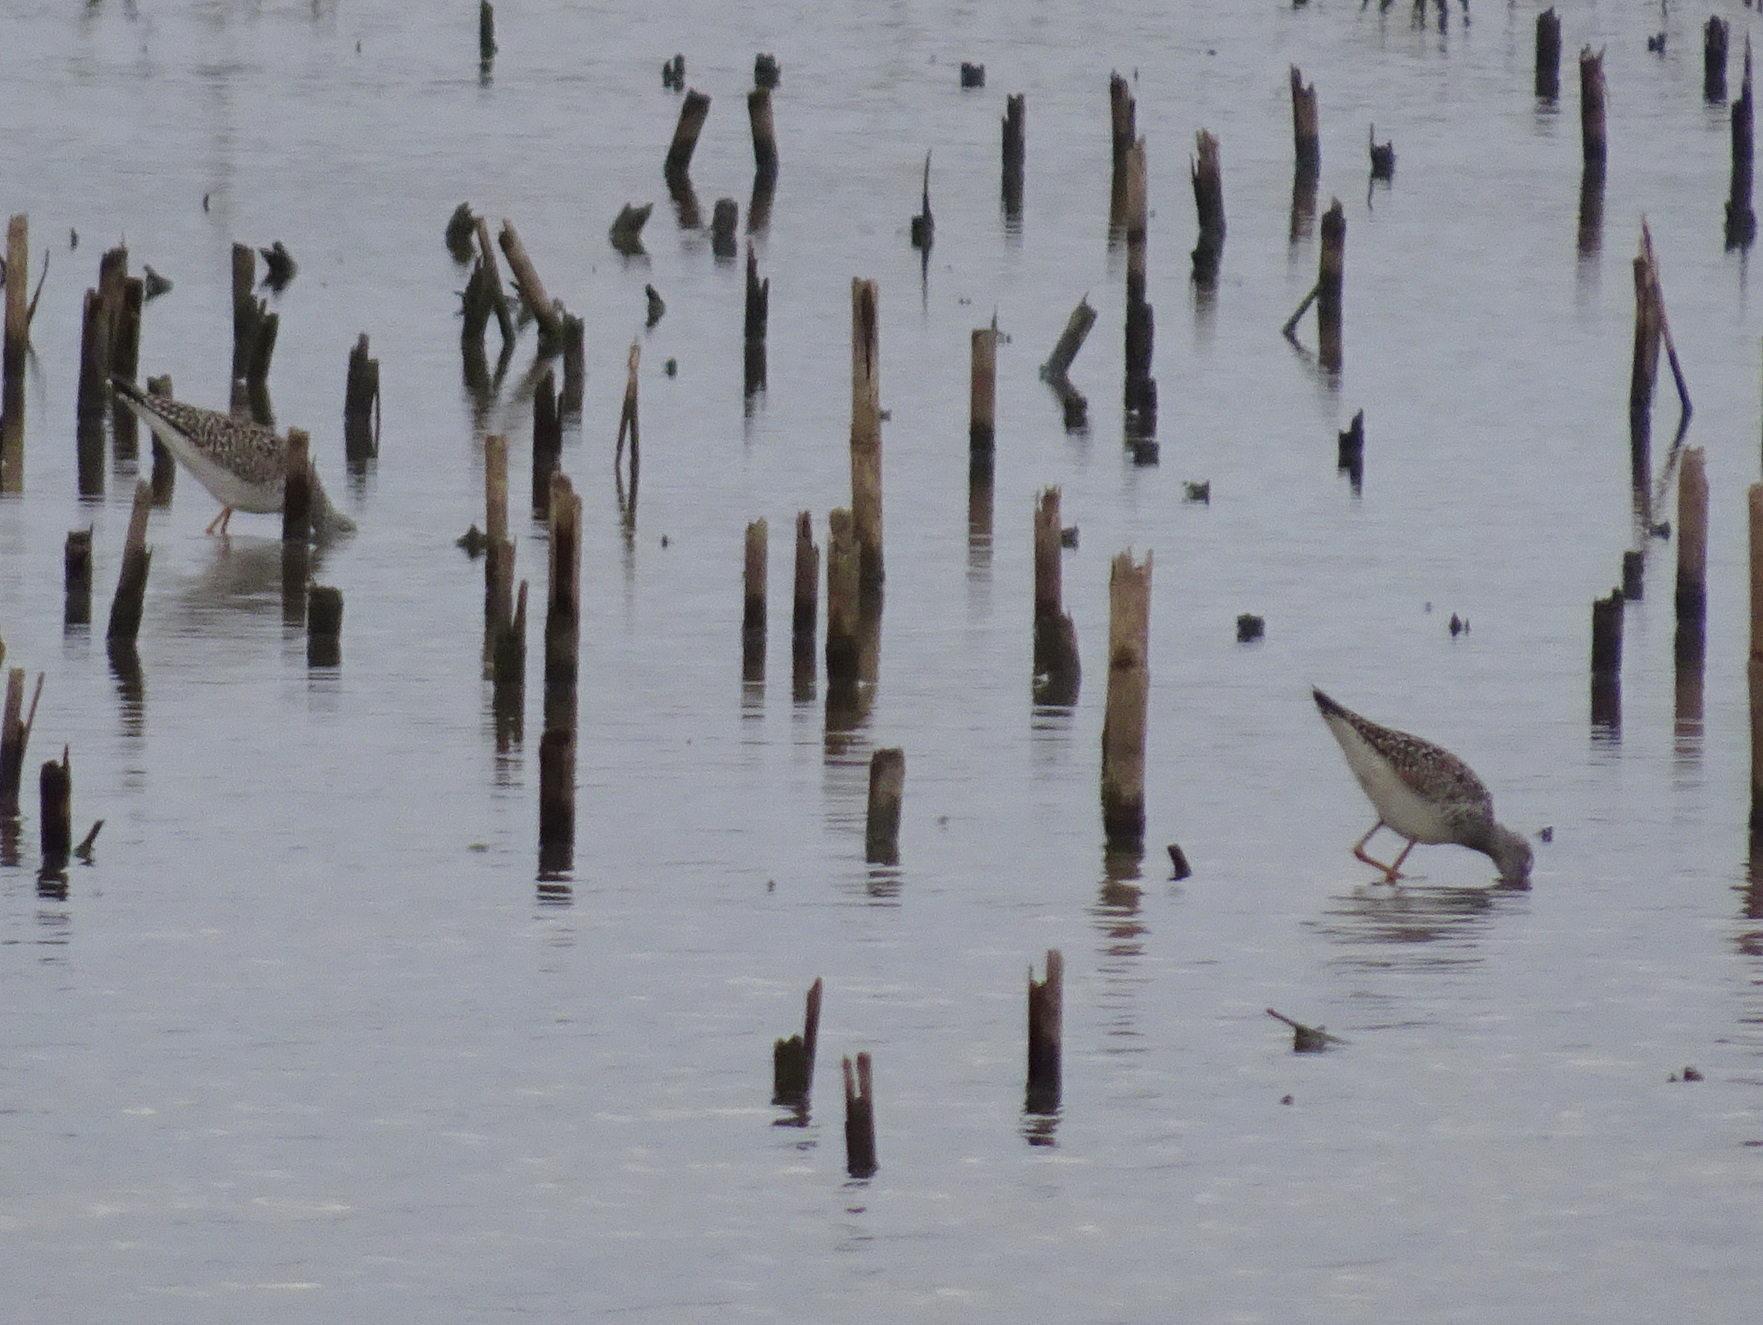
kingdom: Animalia
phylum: Chordata
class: Aves
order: Charadriiformes
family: Scolopacidae
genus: Tringa
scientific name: Tringa flavipes
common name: Lesser yellowlegs
